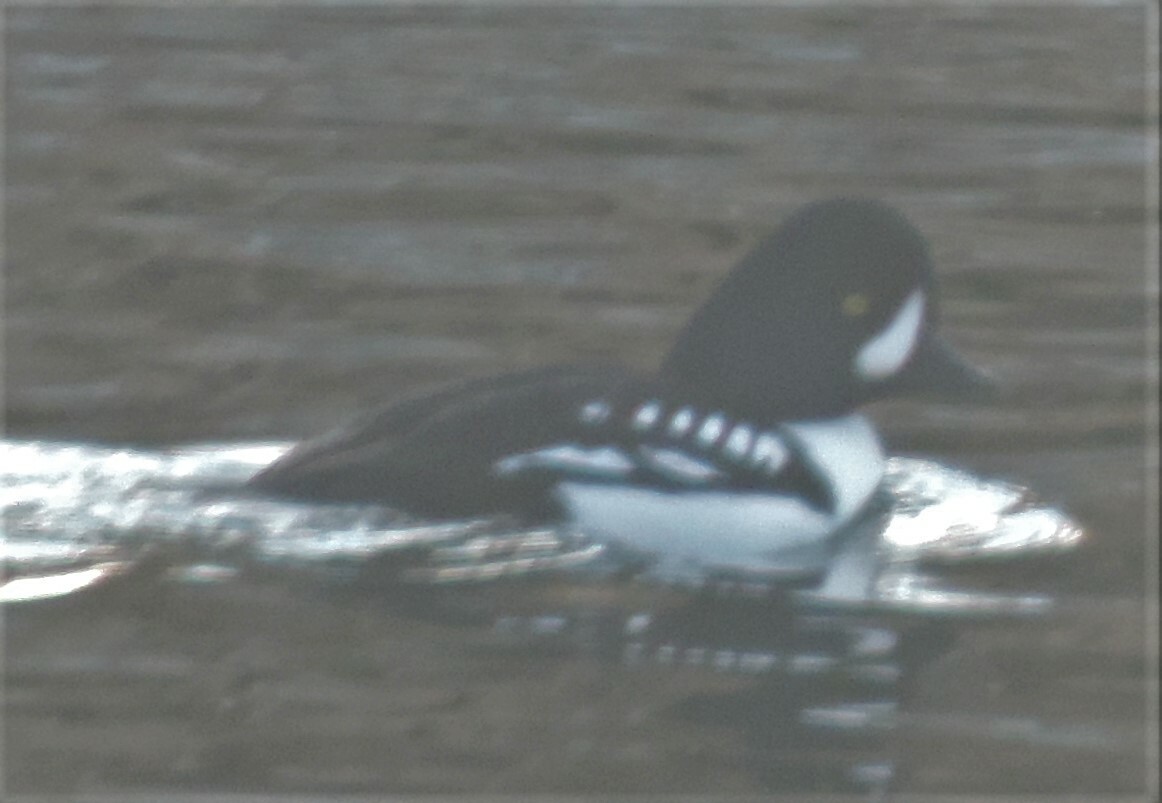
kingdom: Animalia
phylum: Chordata
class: Aves
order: Anseriformes
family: Anatidae
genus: Bucephala
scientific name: Bucephala islandica
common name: Barrow's goldeneye
